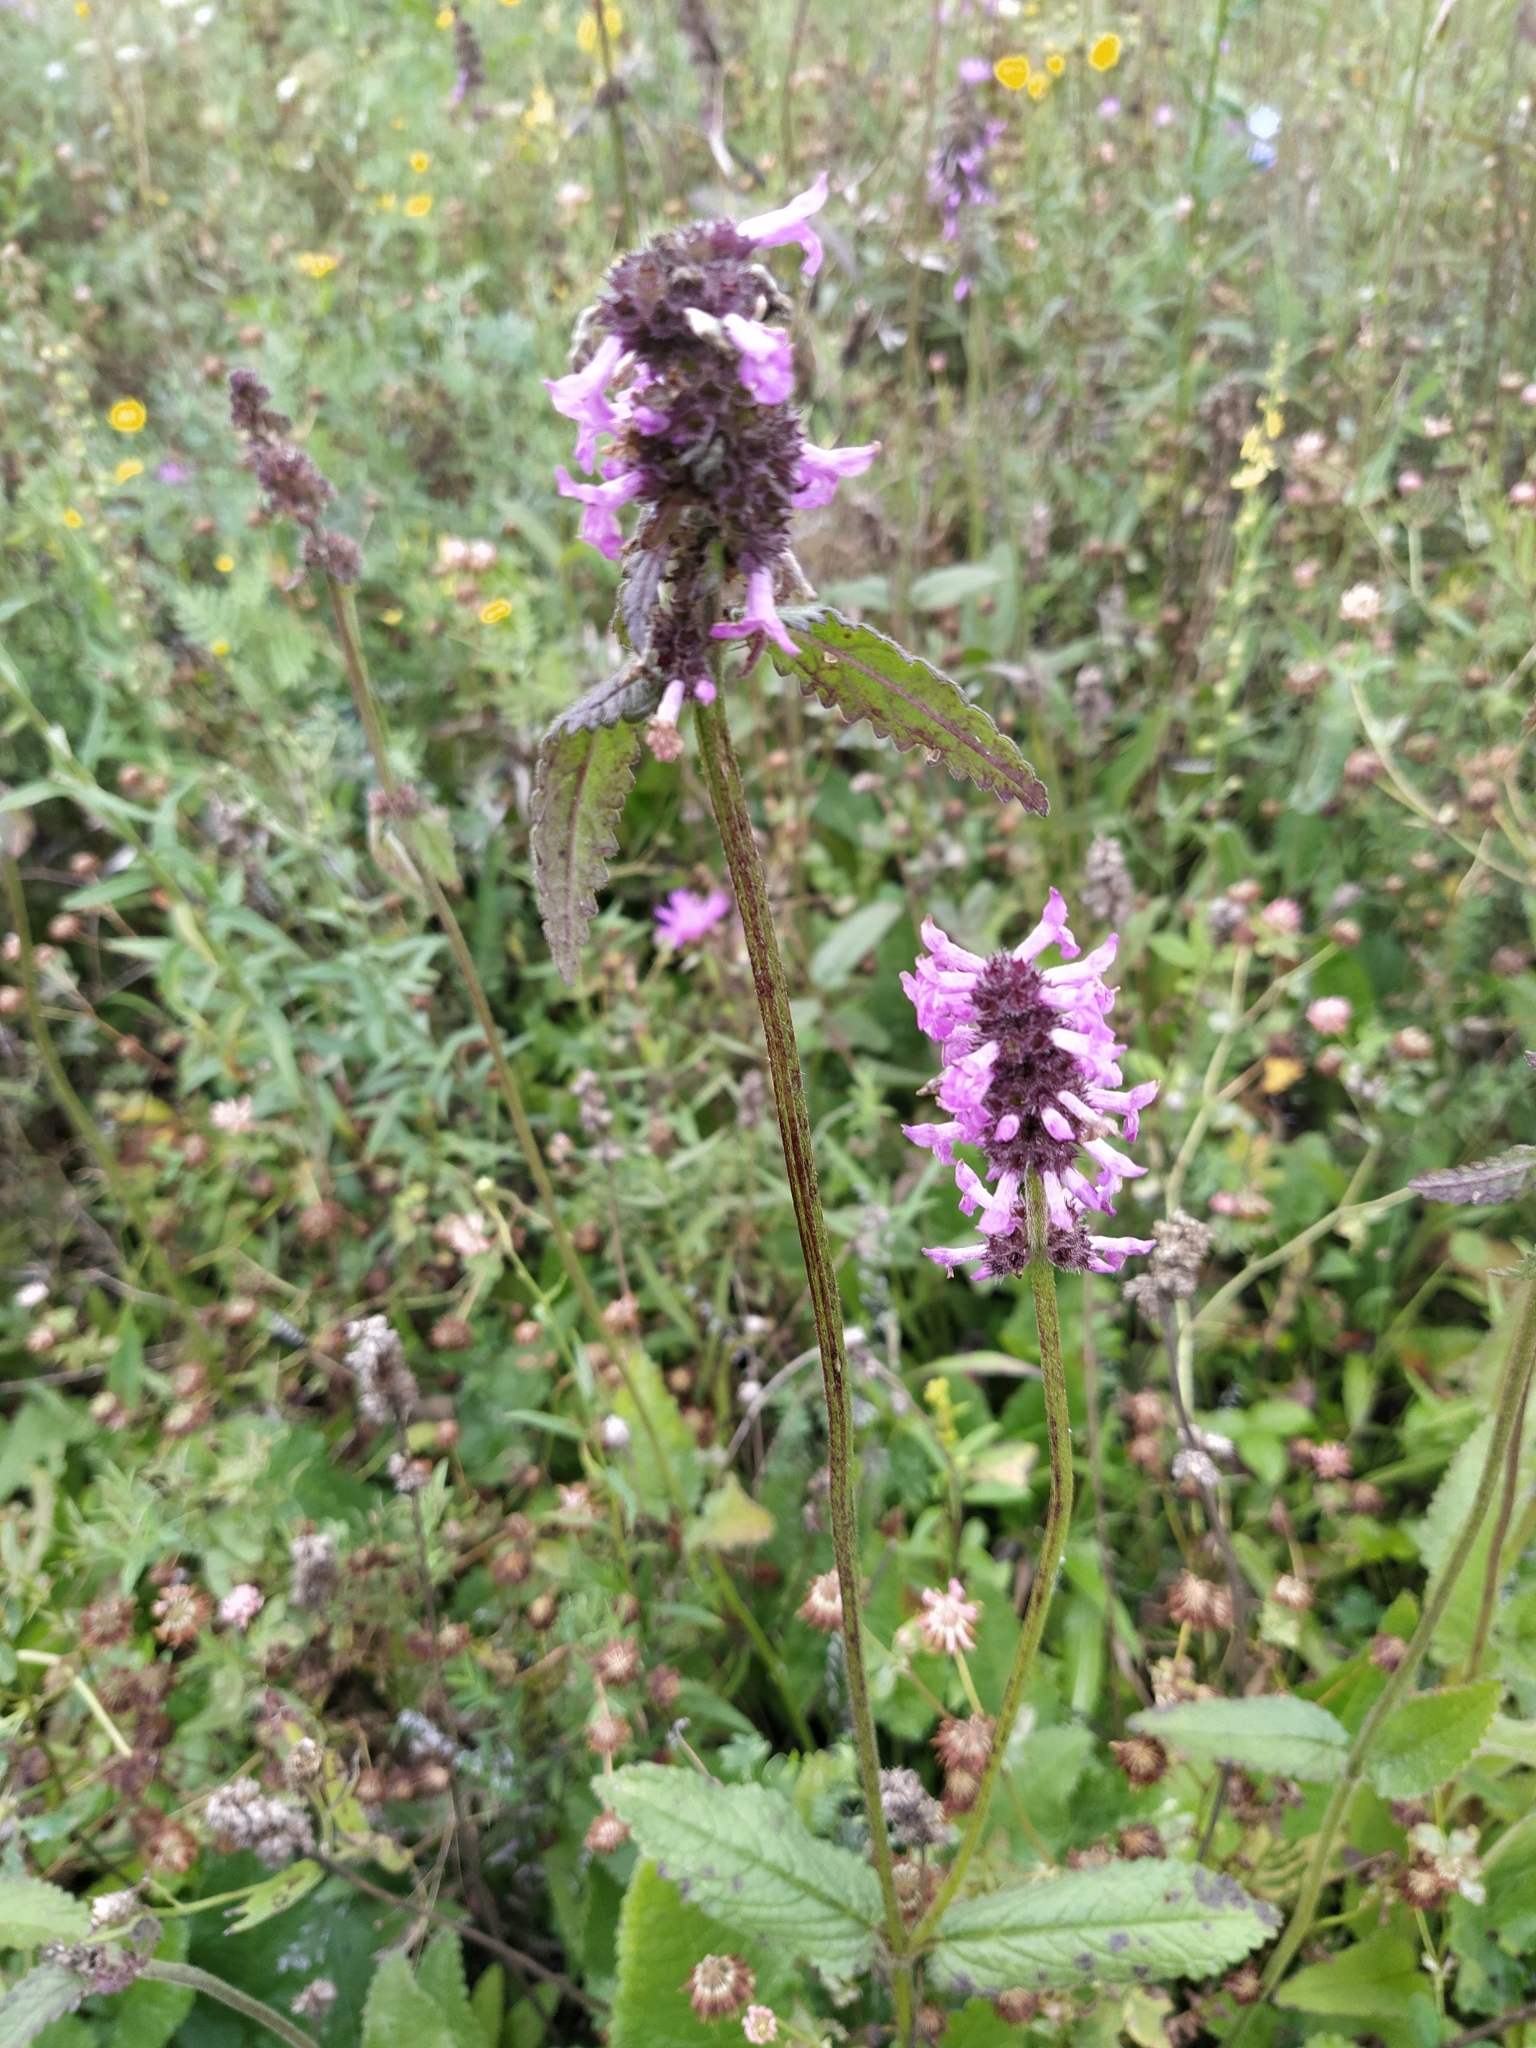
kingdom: Plantae
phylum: Tracheophyta
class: Magnoliopsida
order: Lamiales
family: Lamiaceae
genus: Betonica
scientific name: Betonica officinalis
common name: Bishop's-wort
